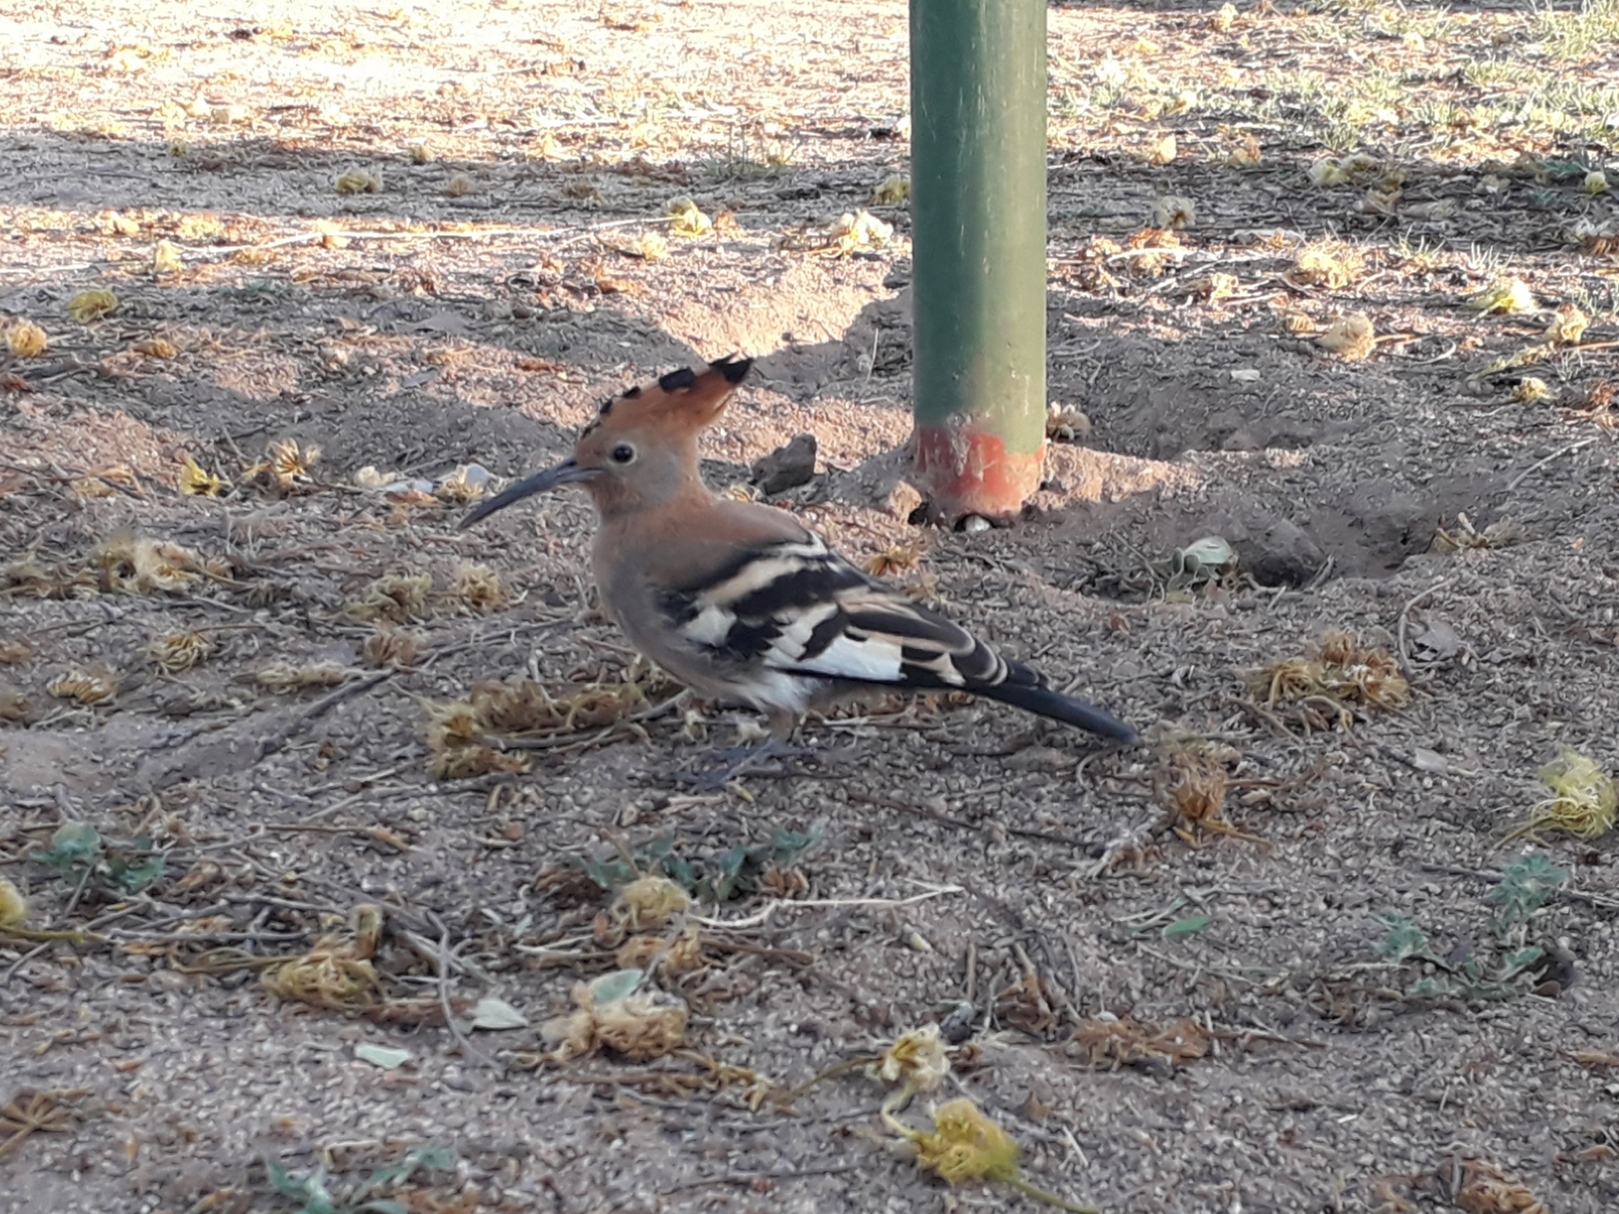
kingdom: Animalia
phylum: Chordata
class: Aves
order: Bucerotiformes
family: Upupidae
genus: Upupa
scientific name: Upupa africana
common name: African hoopoe
